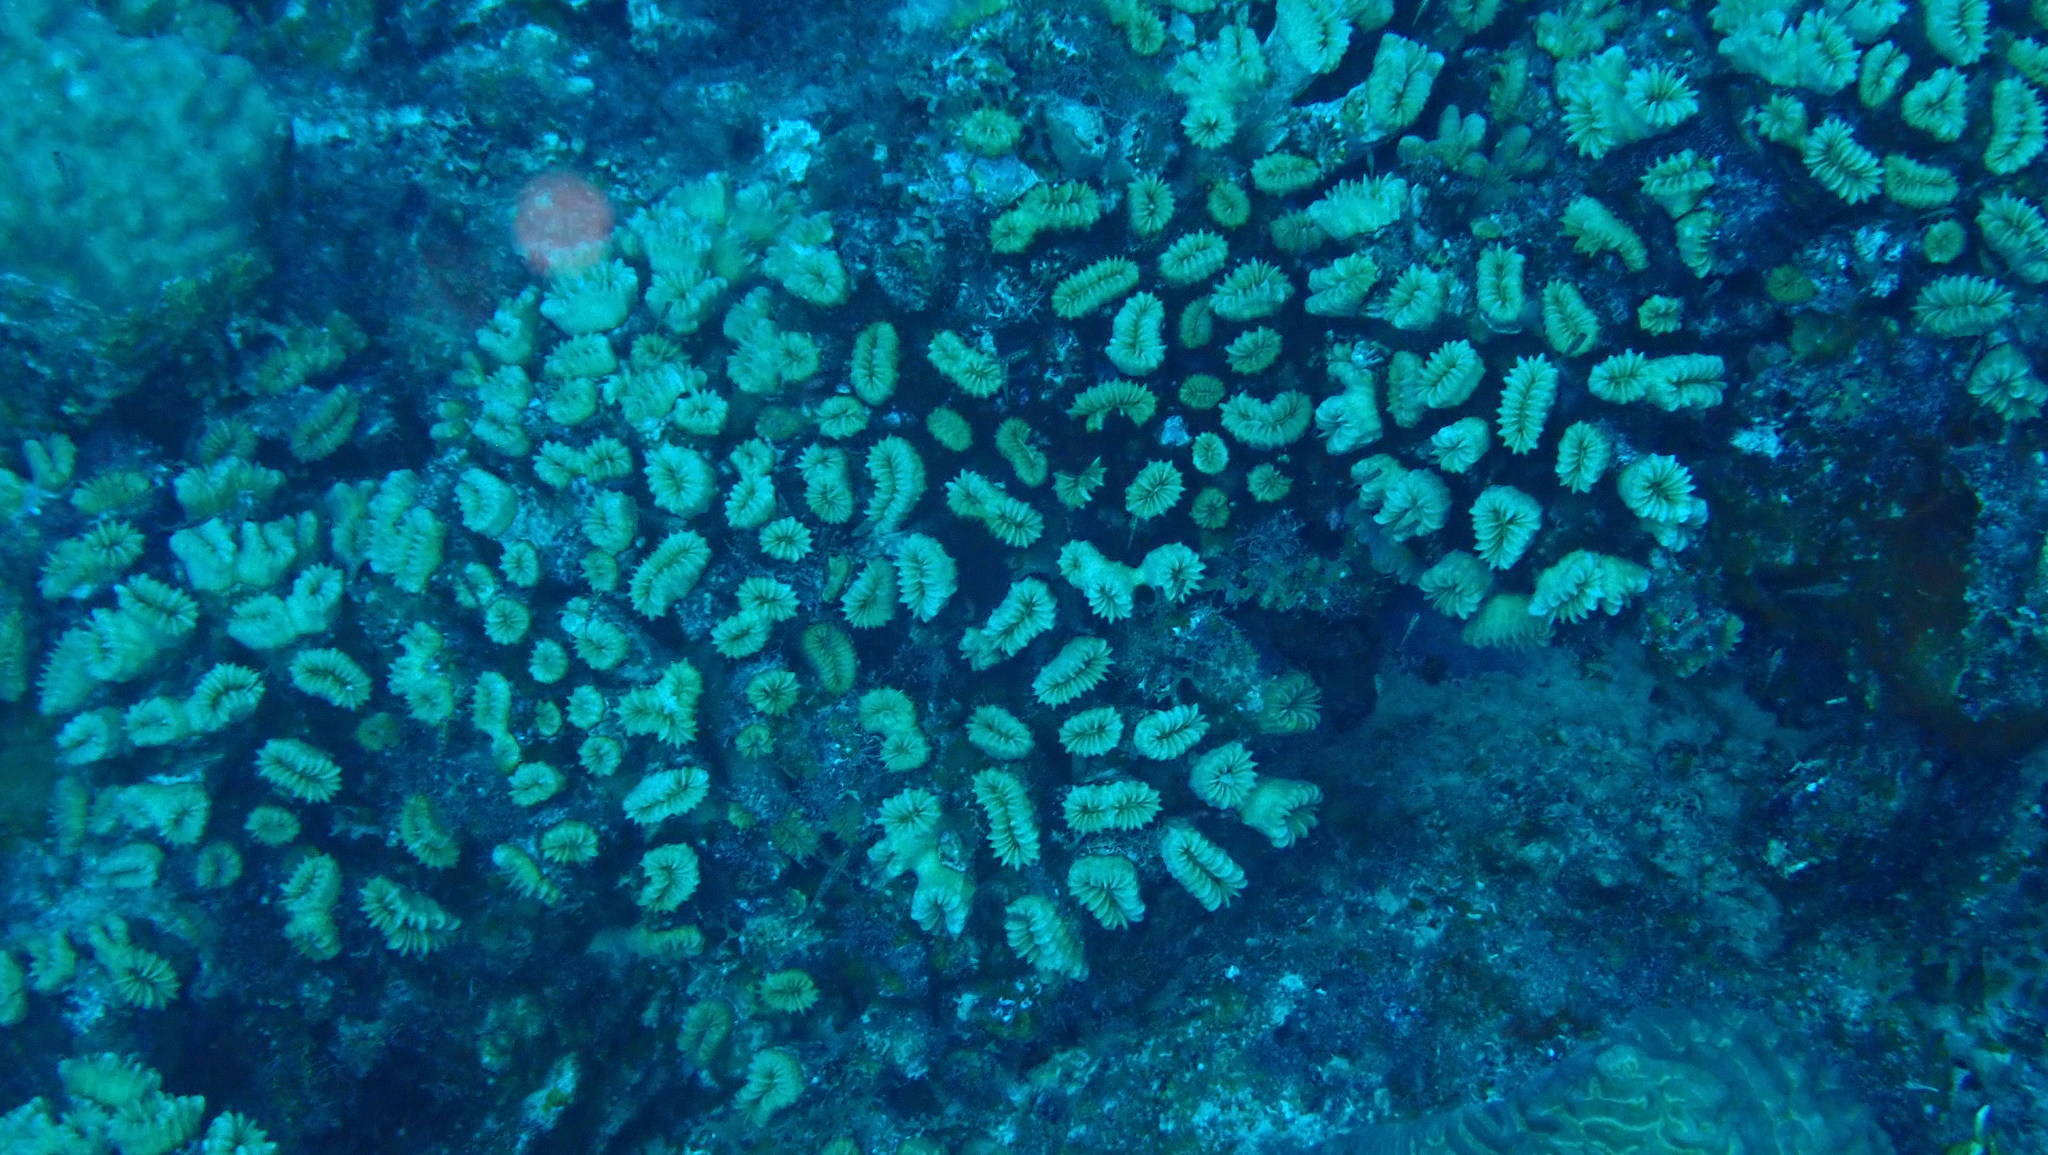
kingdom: Animalia
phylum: Cnidaria
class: Anthozoa
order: Scleractinia
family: Meandrinidae
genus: Eusmilia
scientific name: Eusmilia fastigiata
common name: Smooth flower coral
